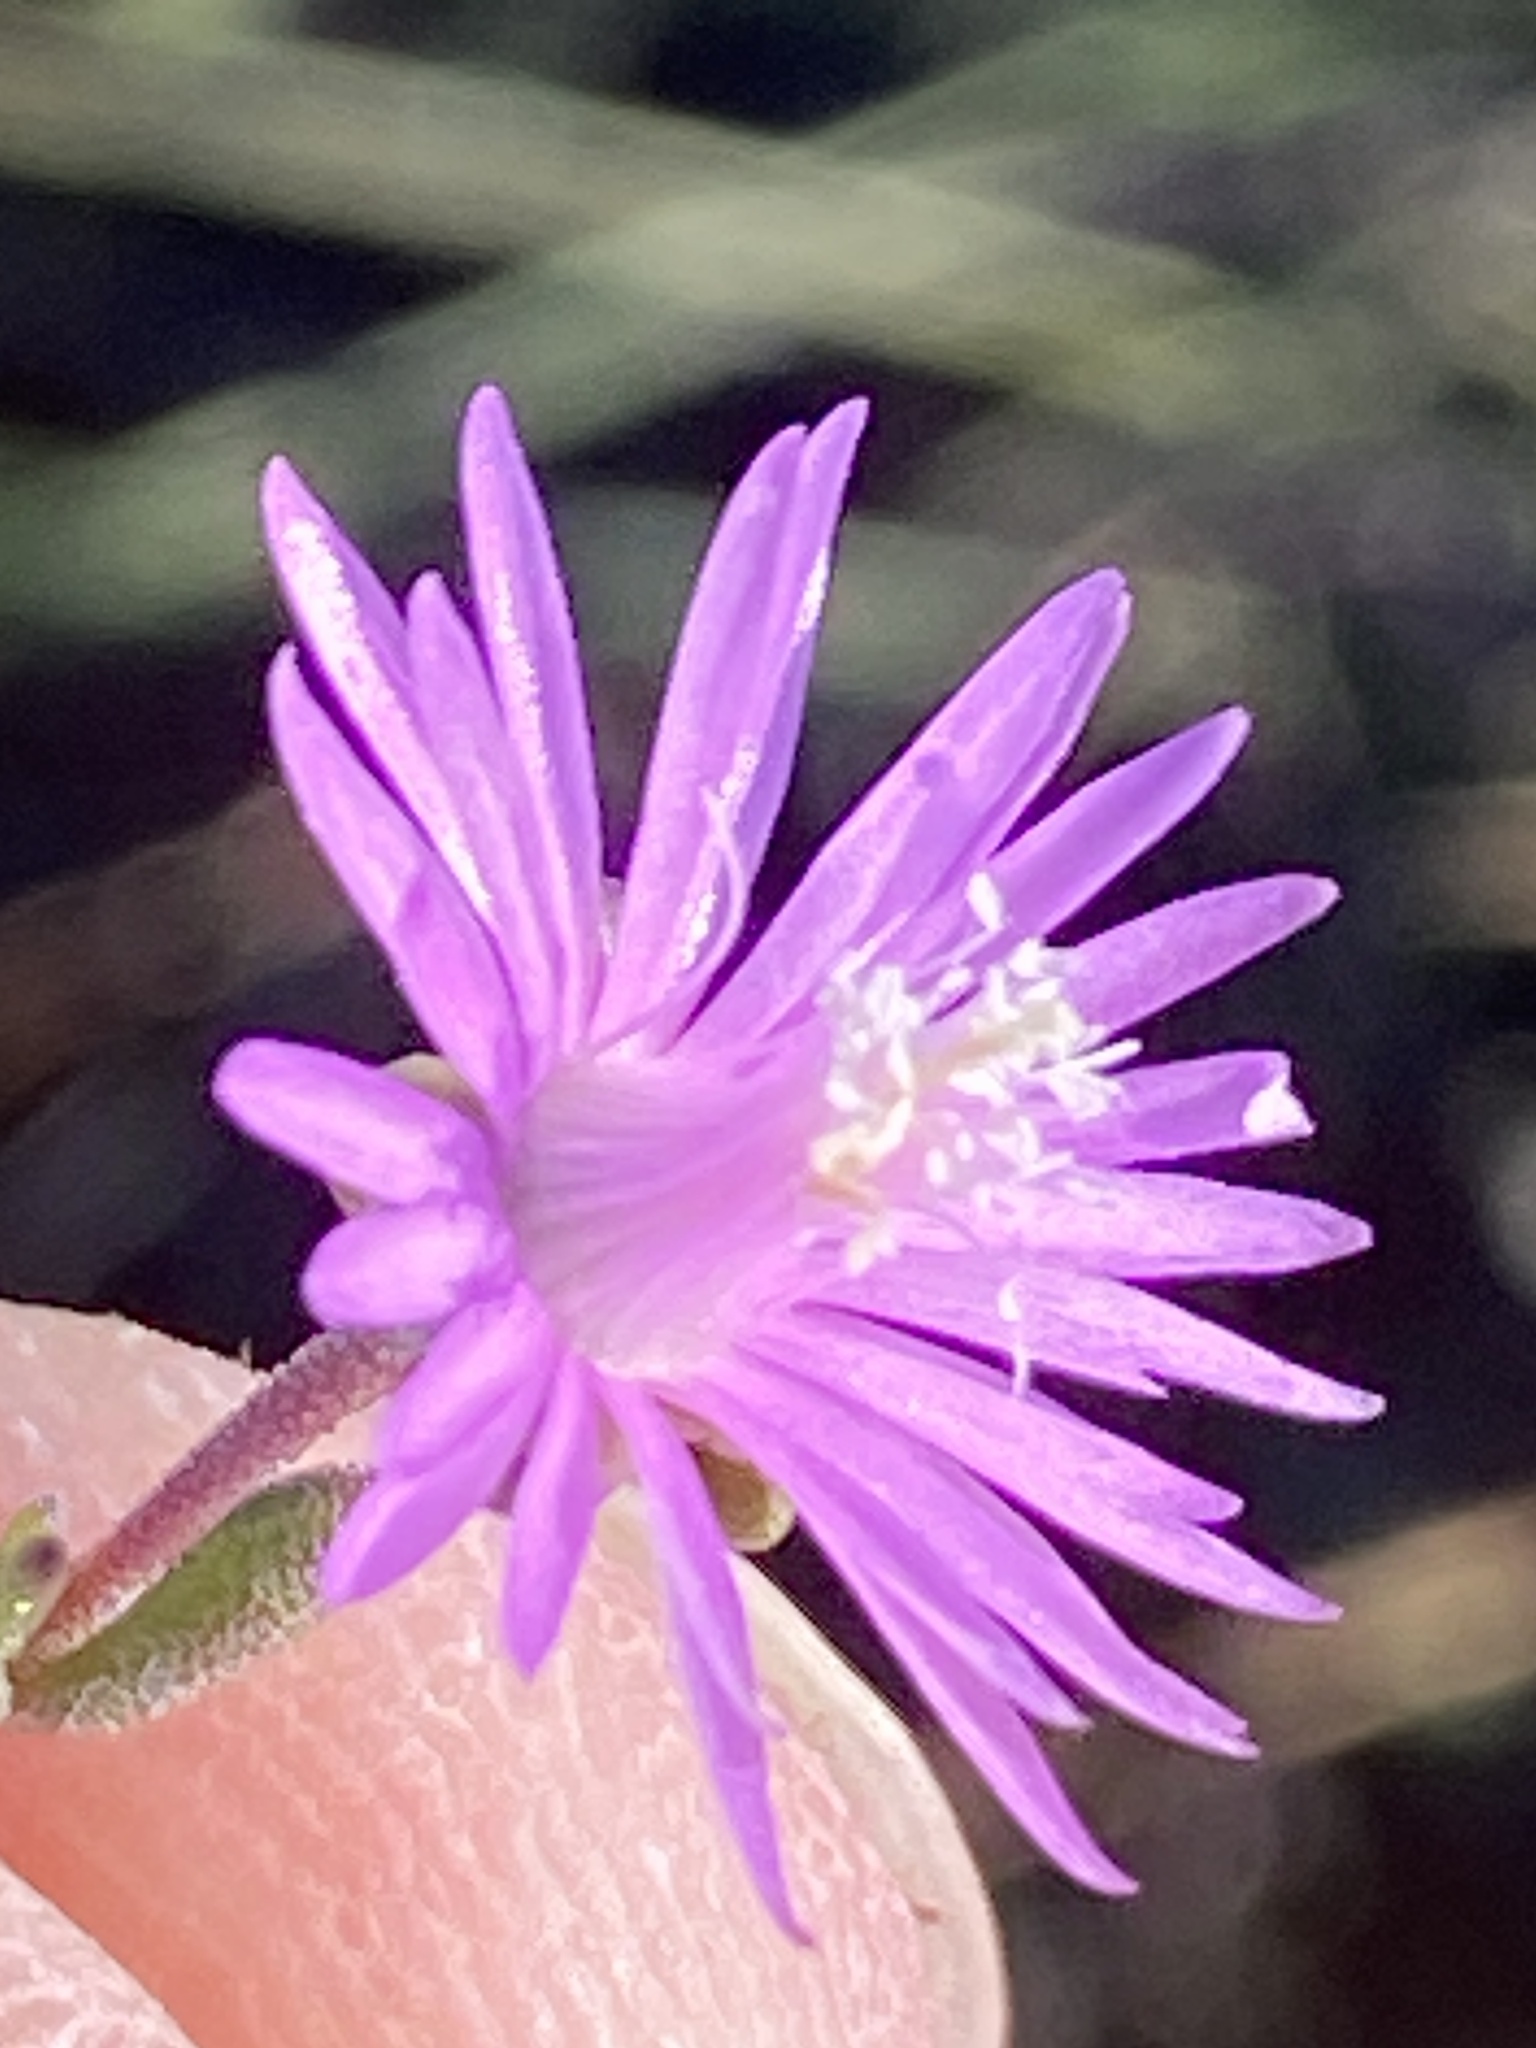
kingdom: Plantae
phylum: Tracheophyta
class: Magnoliopsida
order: Caryophyllales
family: Aizoaceae
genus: Drosanthemum
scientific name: Drosanthemum karrooense
